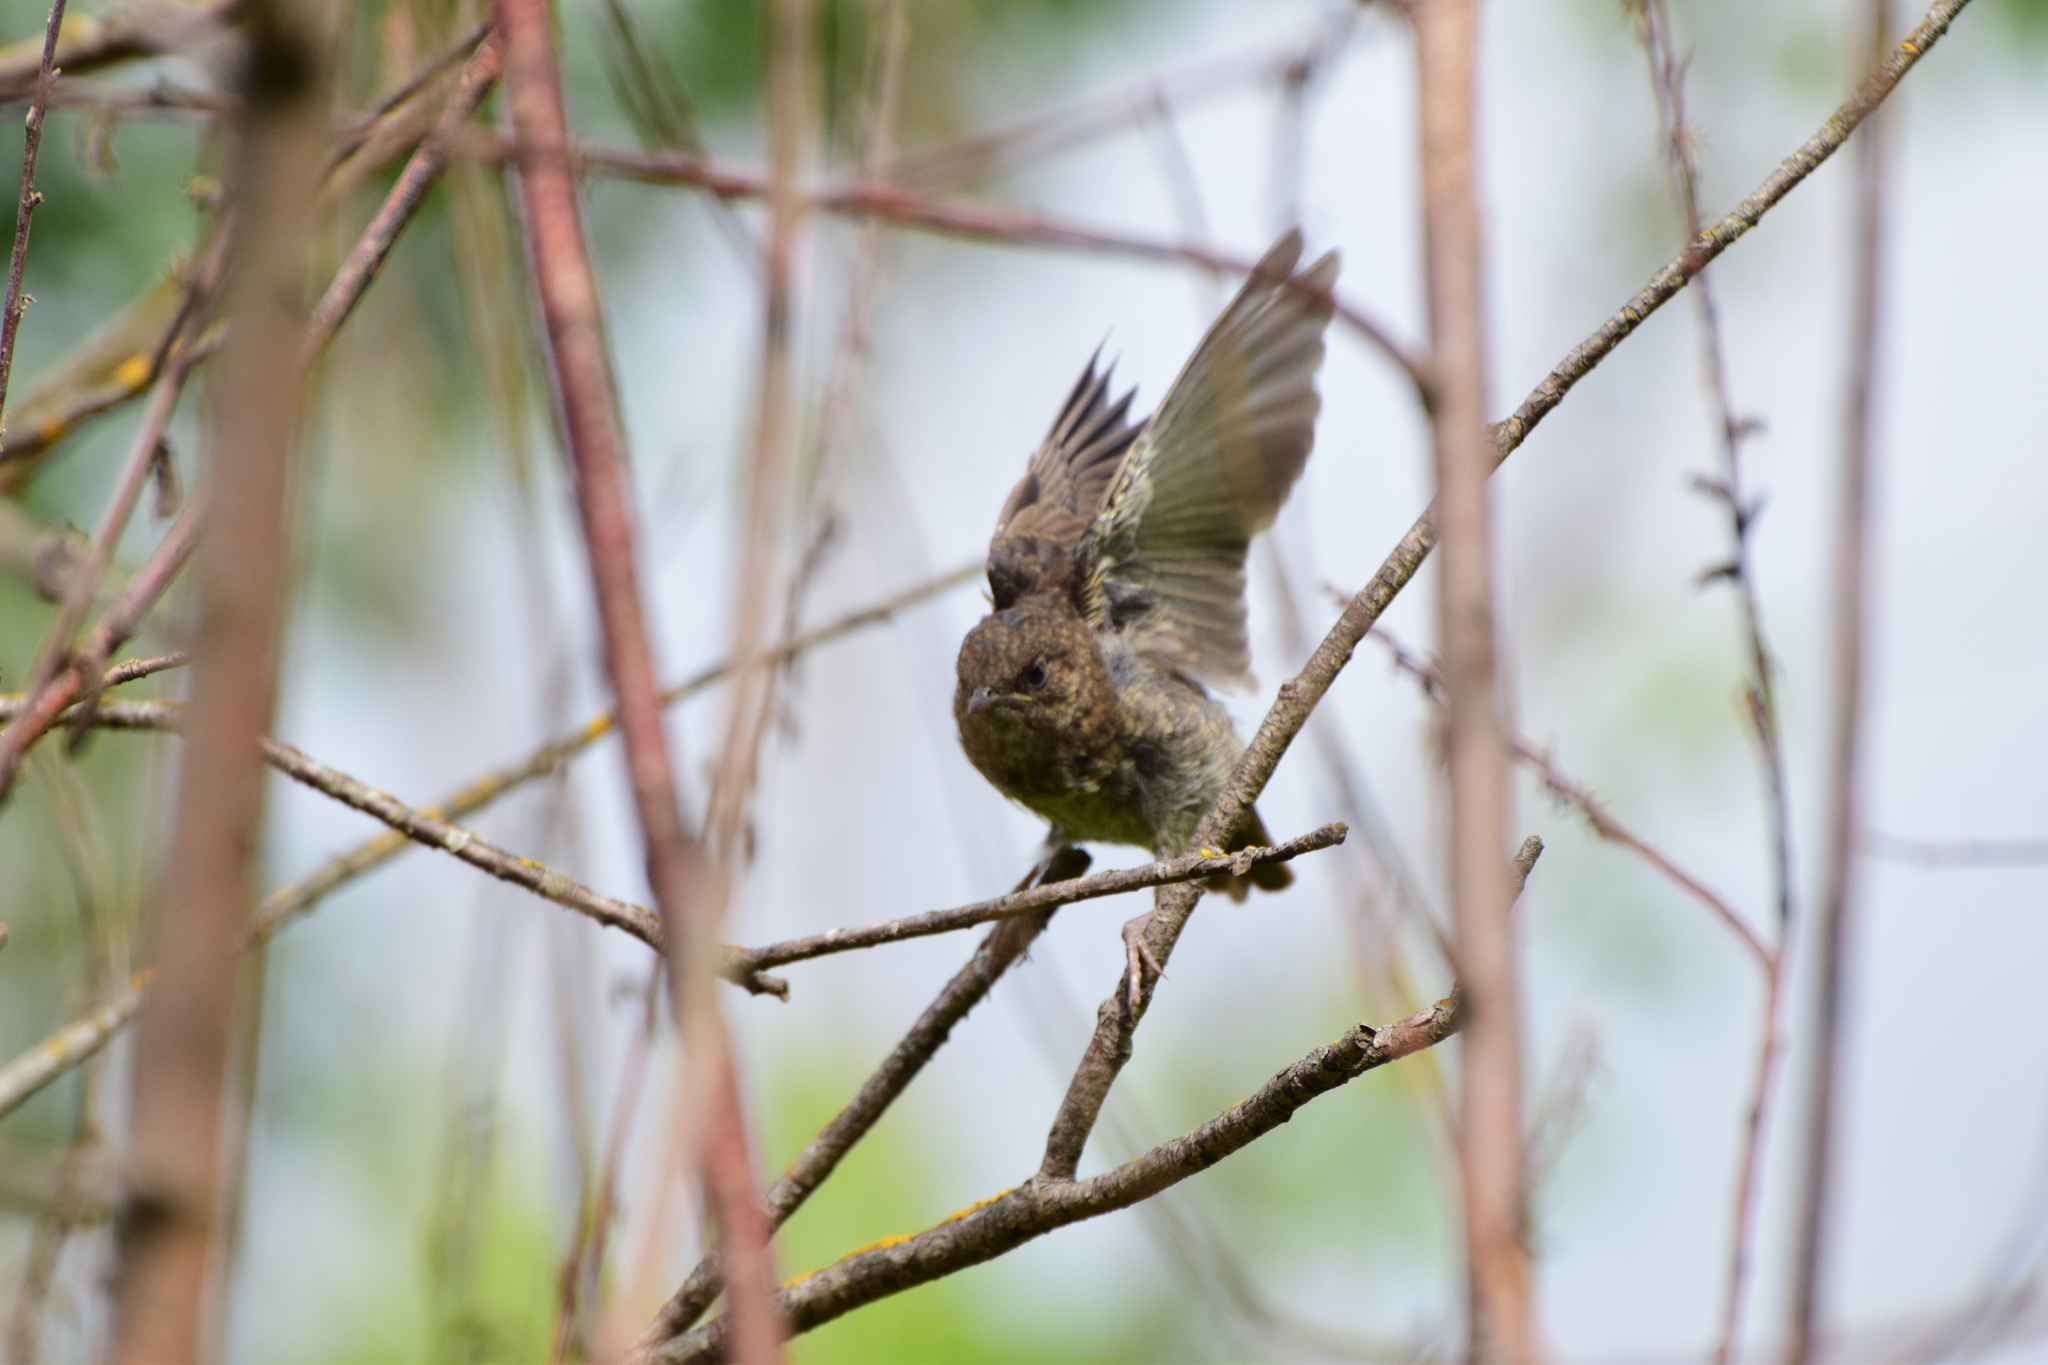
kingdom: Animalia
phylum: Chordata
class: Aves
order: Passeriformes
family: Muscicapidae
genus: Luscinia
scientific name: Luscinia luscinia
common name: Thrush nightingale
